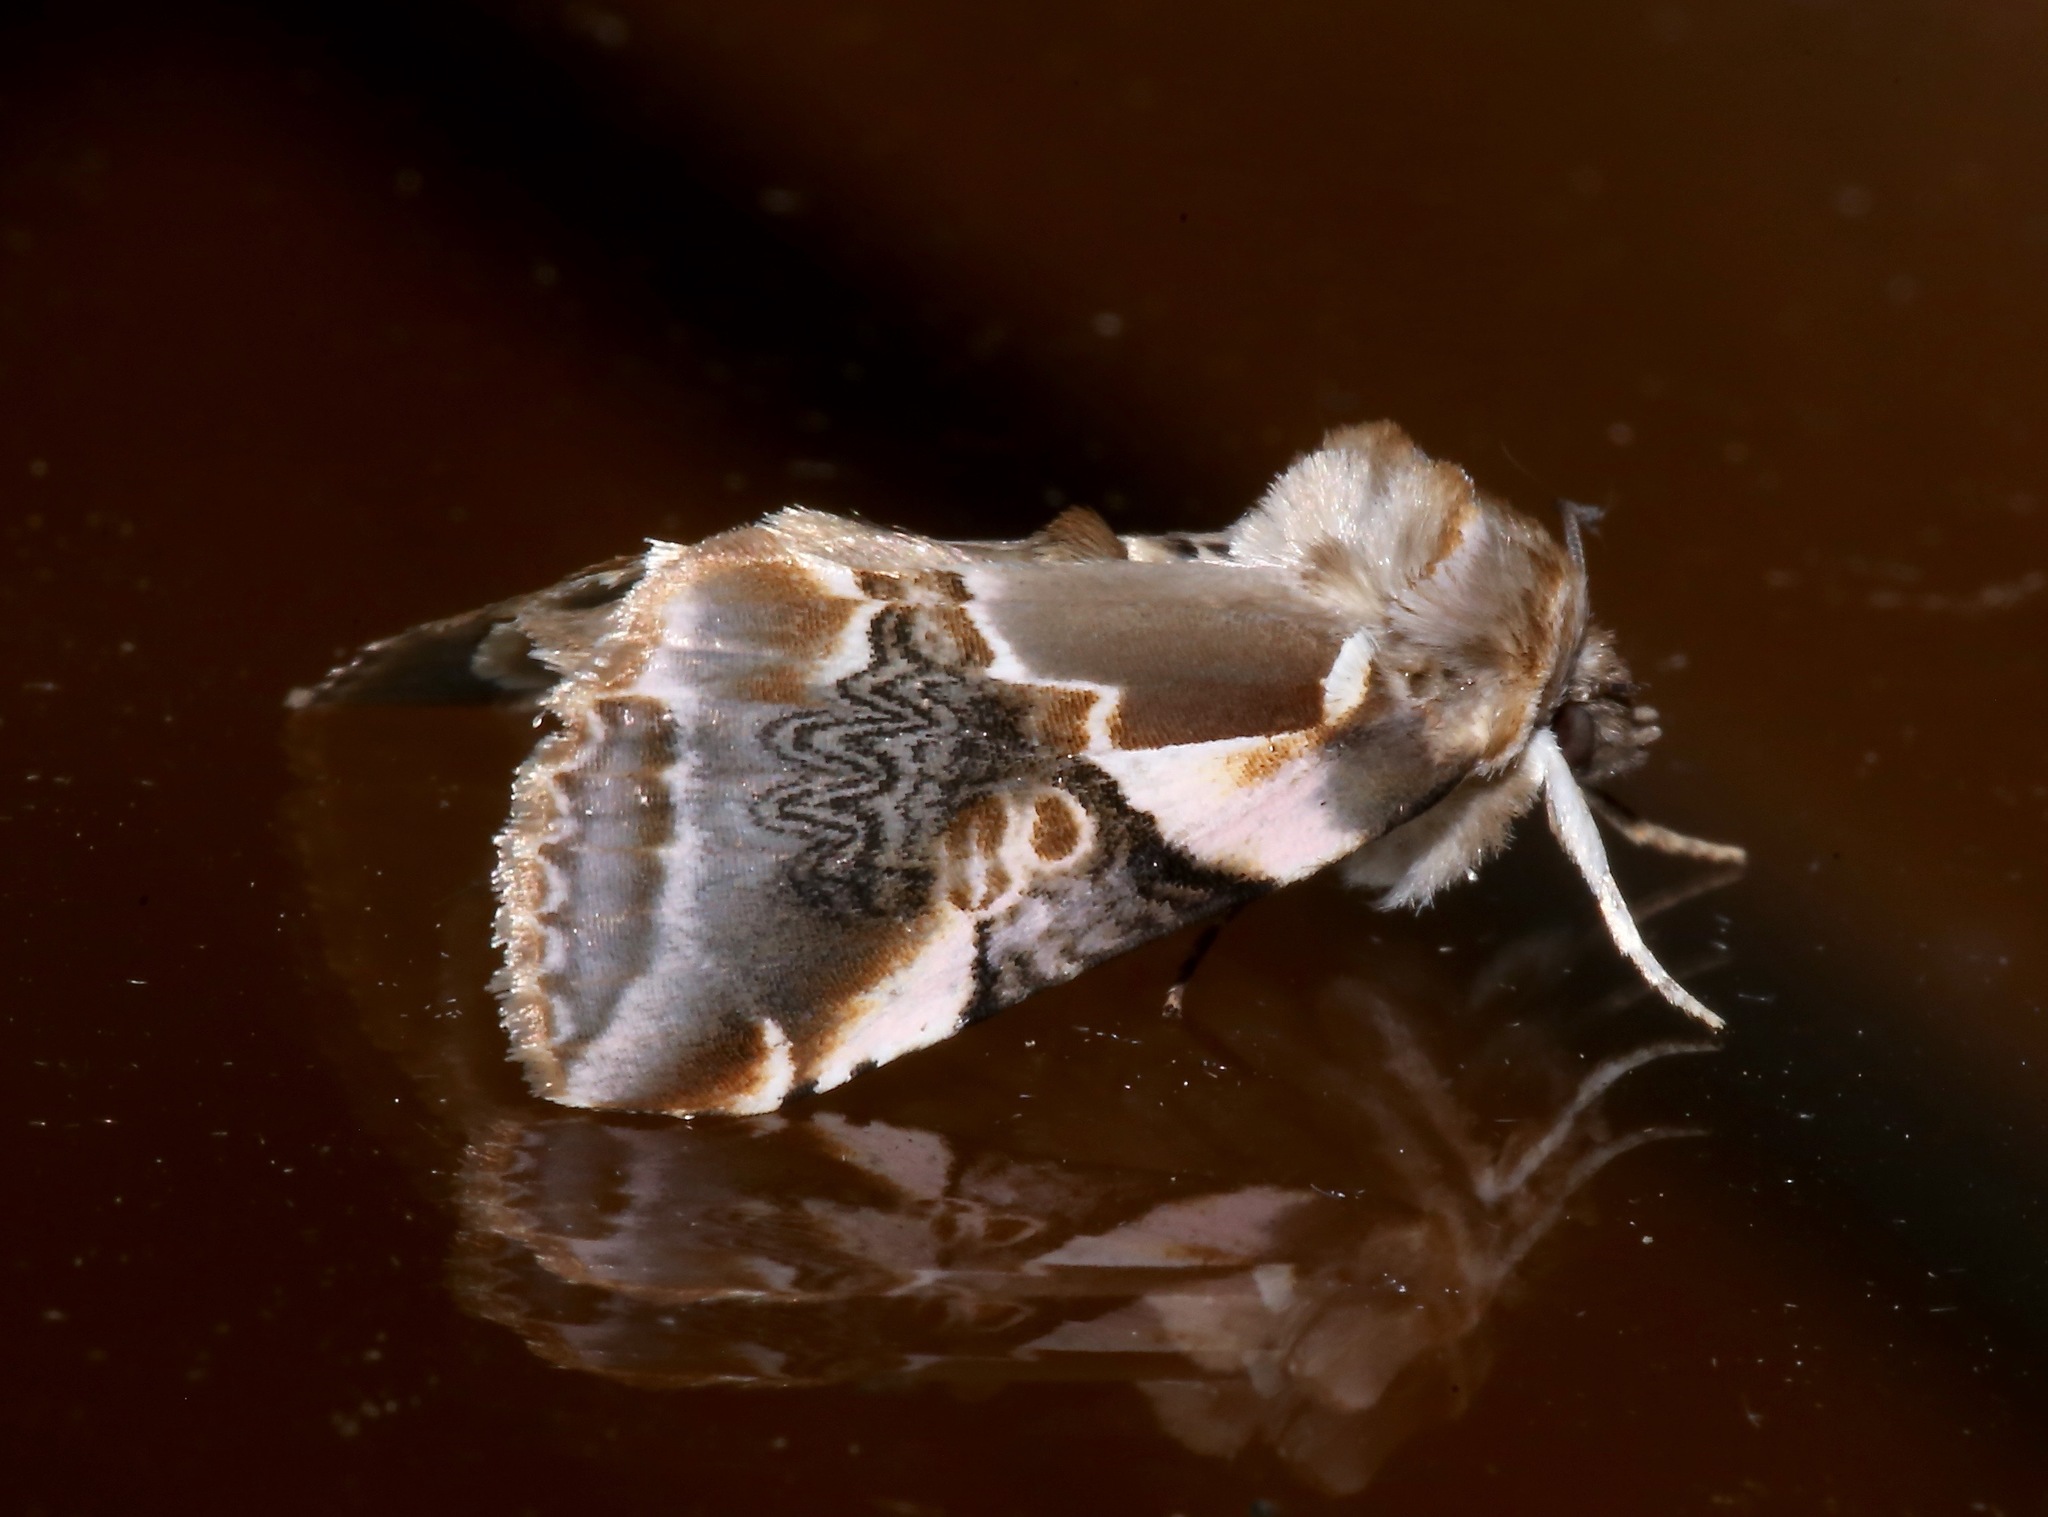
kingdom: Animalia
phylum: Arthropoda
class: Insecta
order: Lepidoptera
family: Drepanidae
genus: Habrosyne
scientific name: Habrosyne gloriosa
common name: Glorious habrosyne moth
